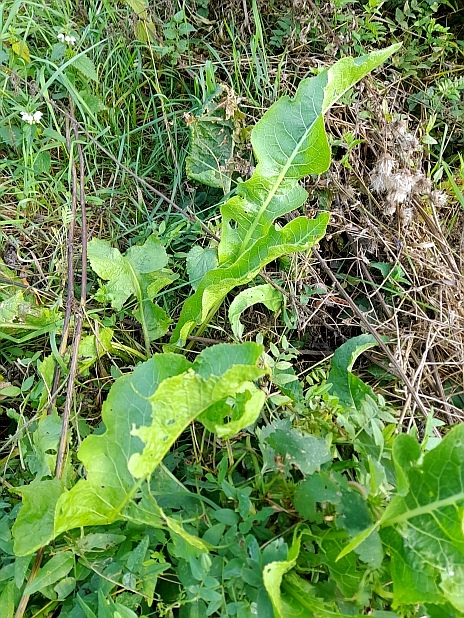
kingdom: Plantae
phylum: Tracheophyta
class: Magnoliopsida
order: Brassicales
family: Brassicaceae
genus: Armoracia
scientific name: Armoracia rusticana
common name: Horseradish
